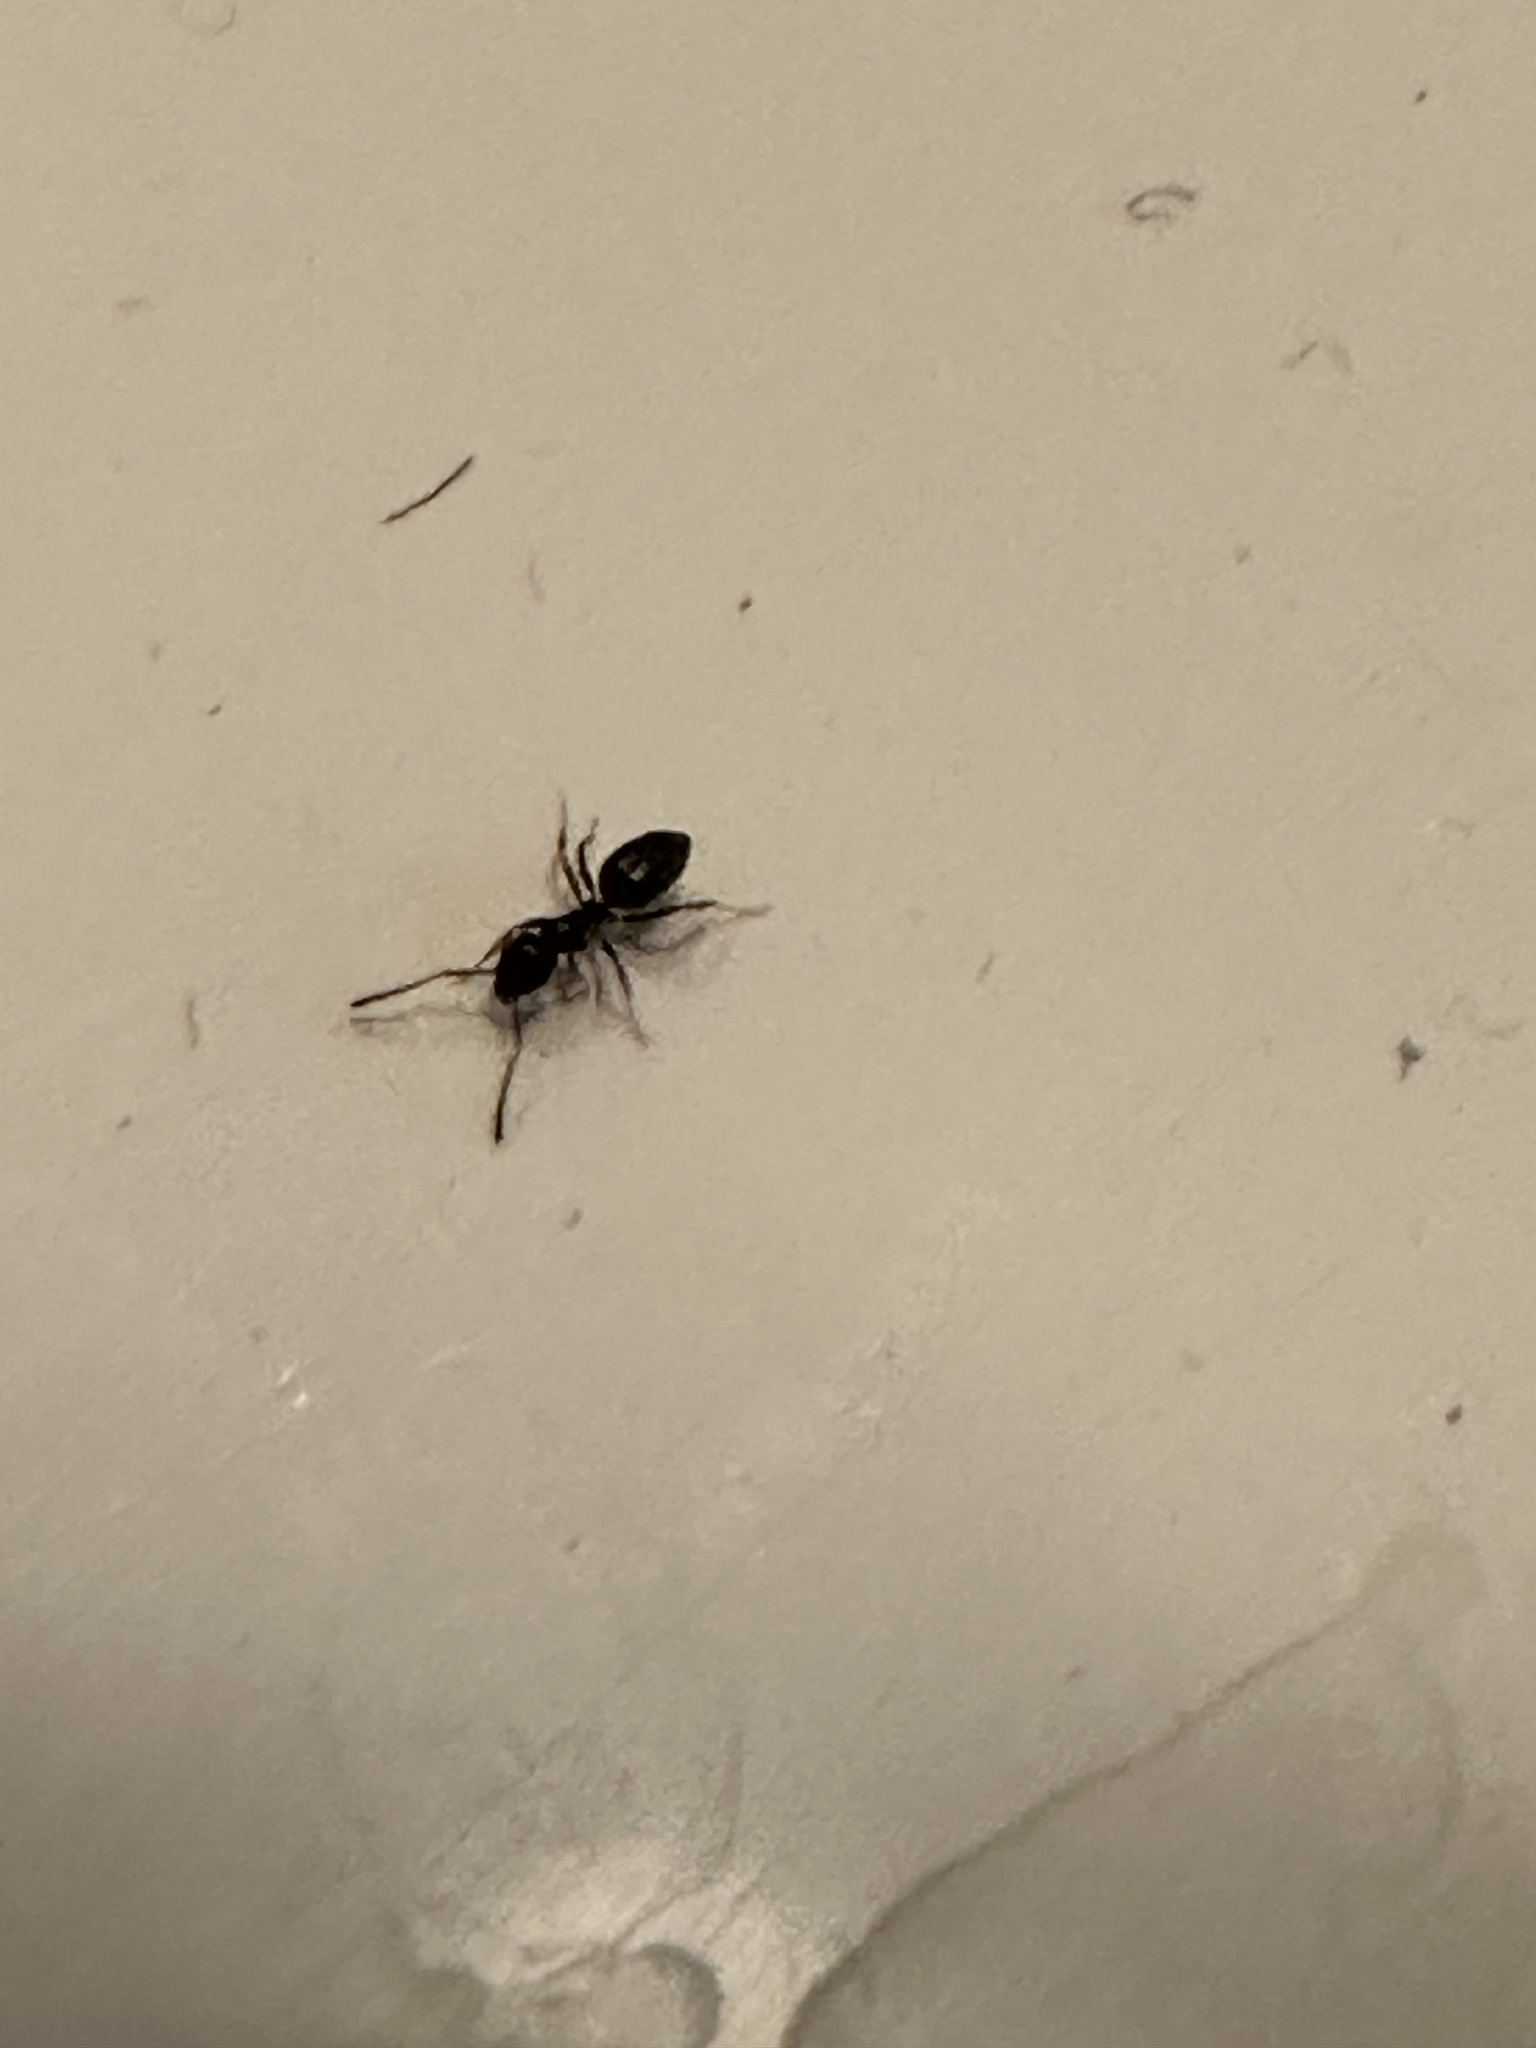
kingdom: Animalia
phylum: Arthropoda
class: Insecta
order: Hymenoptera
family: Formicidae
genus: Tapinoma
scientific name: Tapinoma sessile
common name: Odorous house ant
